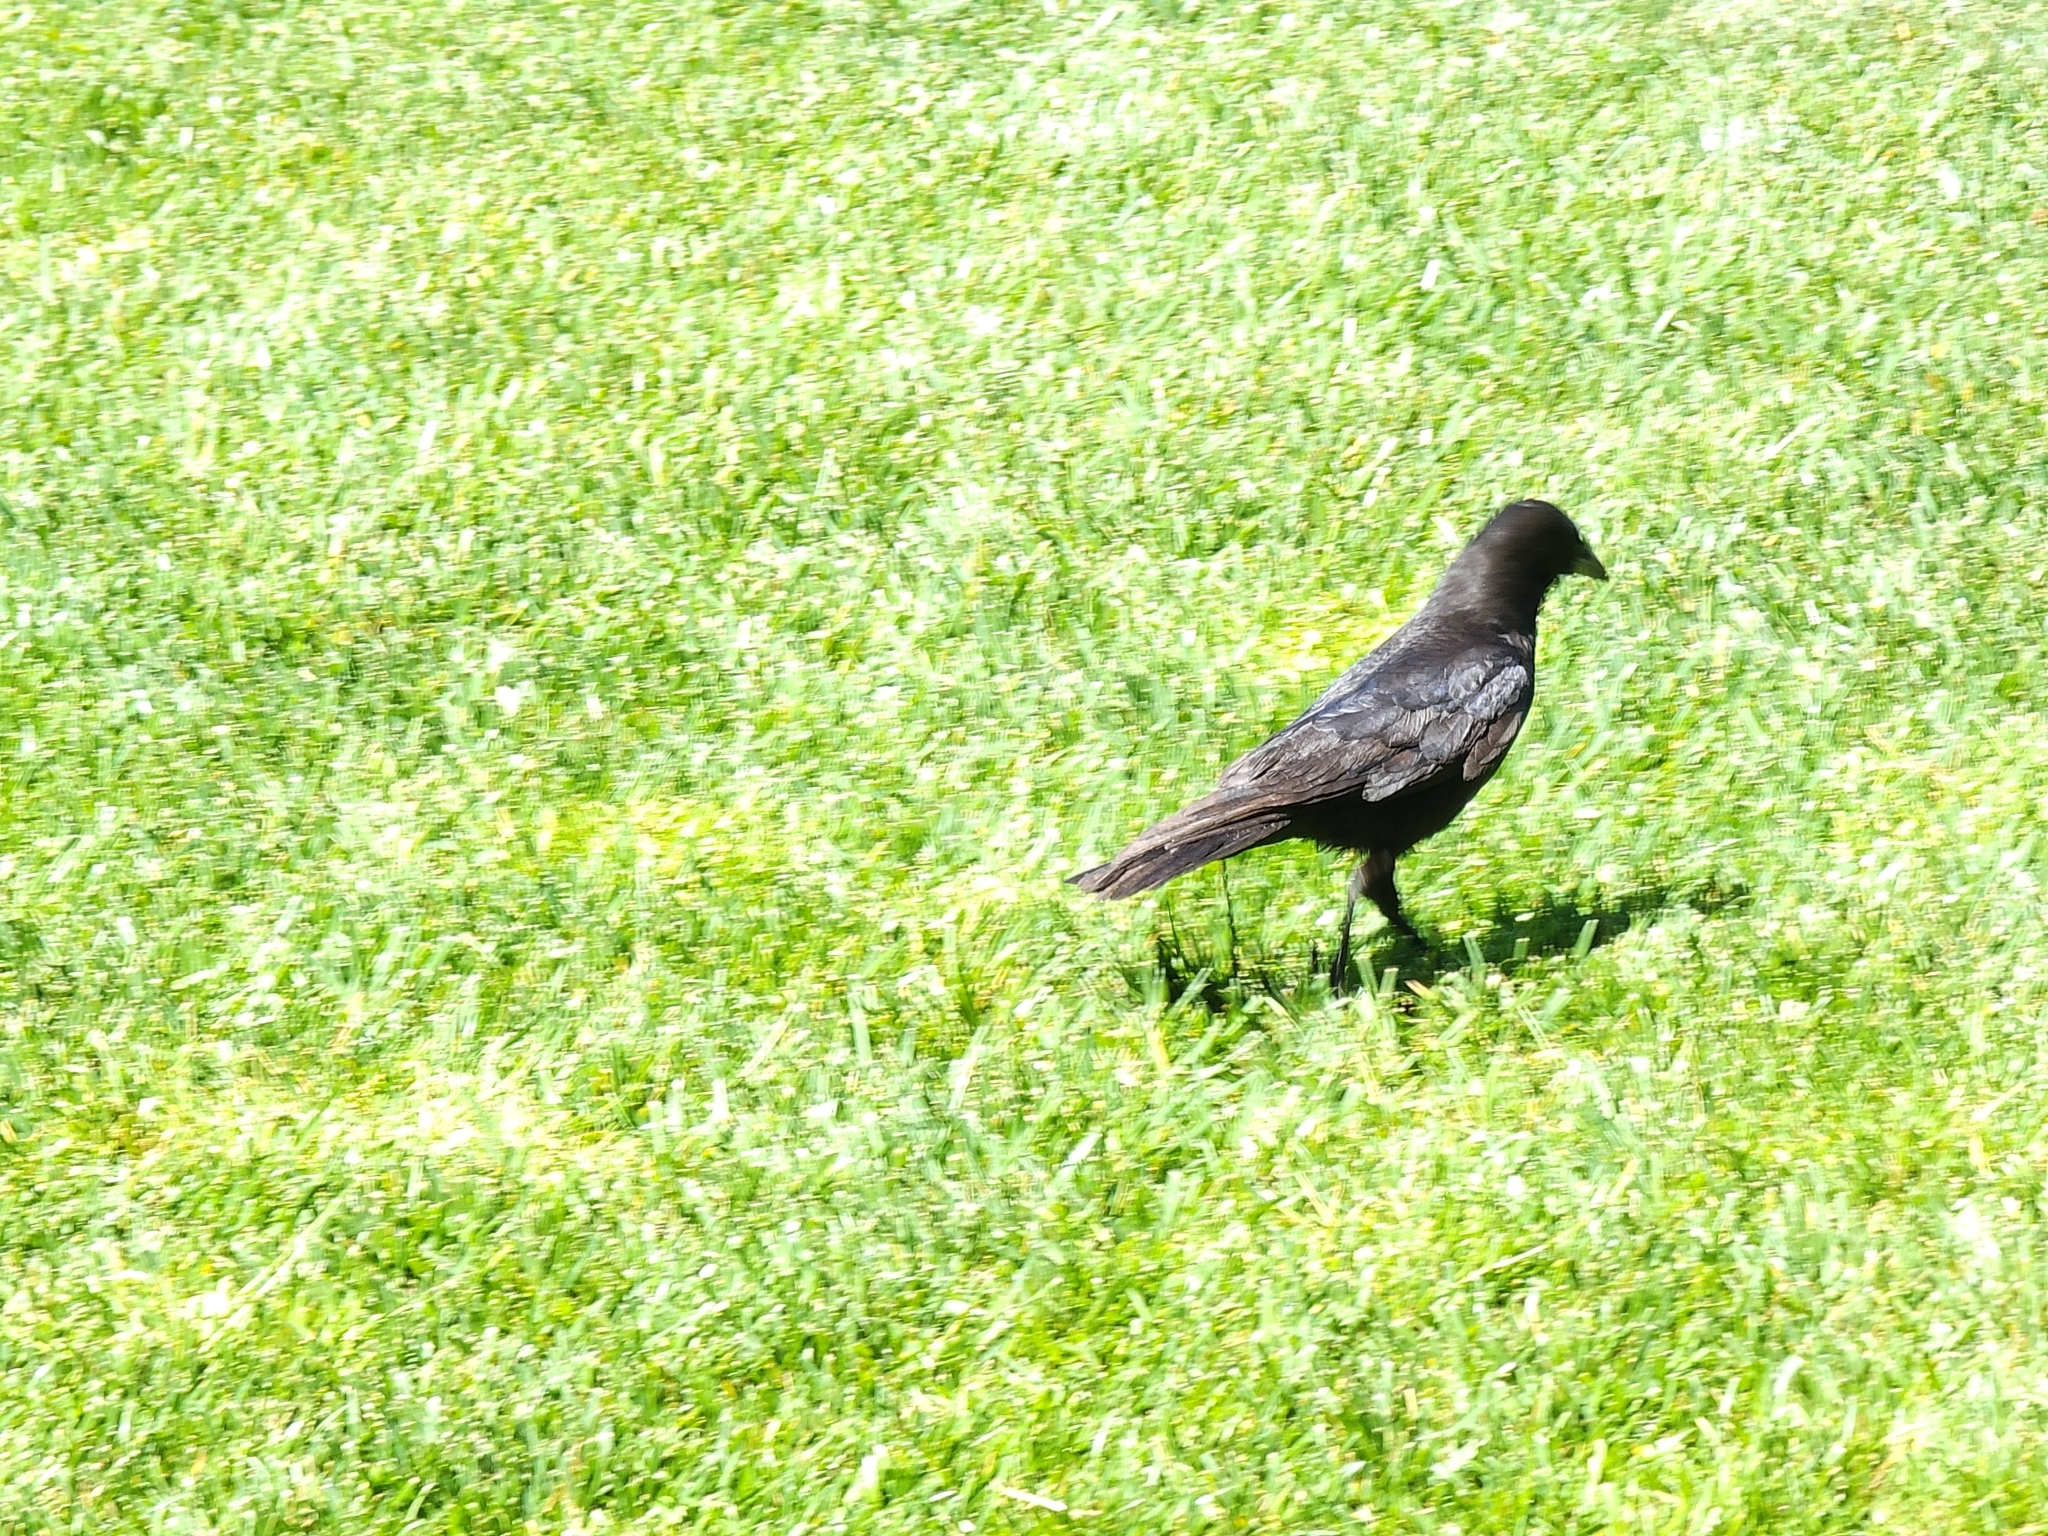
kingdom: Animalia
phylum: Chordata
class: Aves
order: Passeriformes
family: Corvidae
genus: Corvus
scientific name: Corvus brachyrhynchos
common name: American crow
